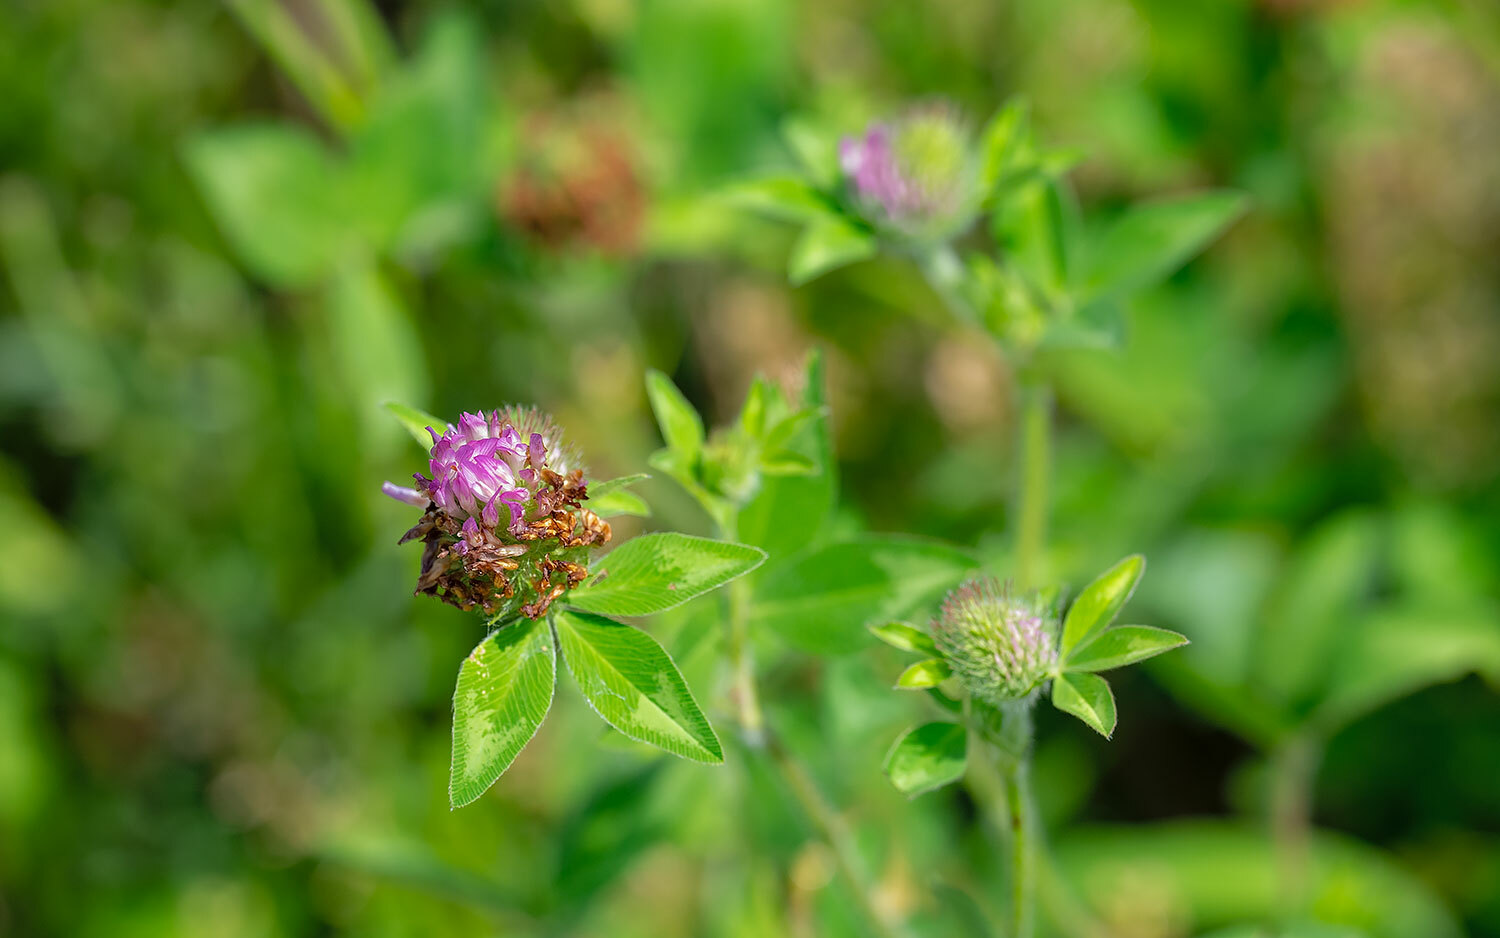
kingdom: Plantae
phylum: Tracheophyta
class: Magnoliopsida
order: Fabales
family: Fabaceae
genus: Trifolium
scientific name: Trifolium pratense
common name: Red clover
